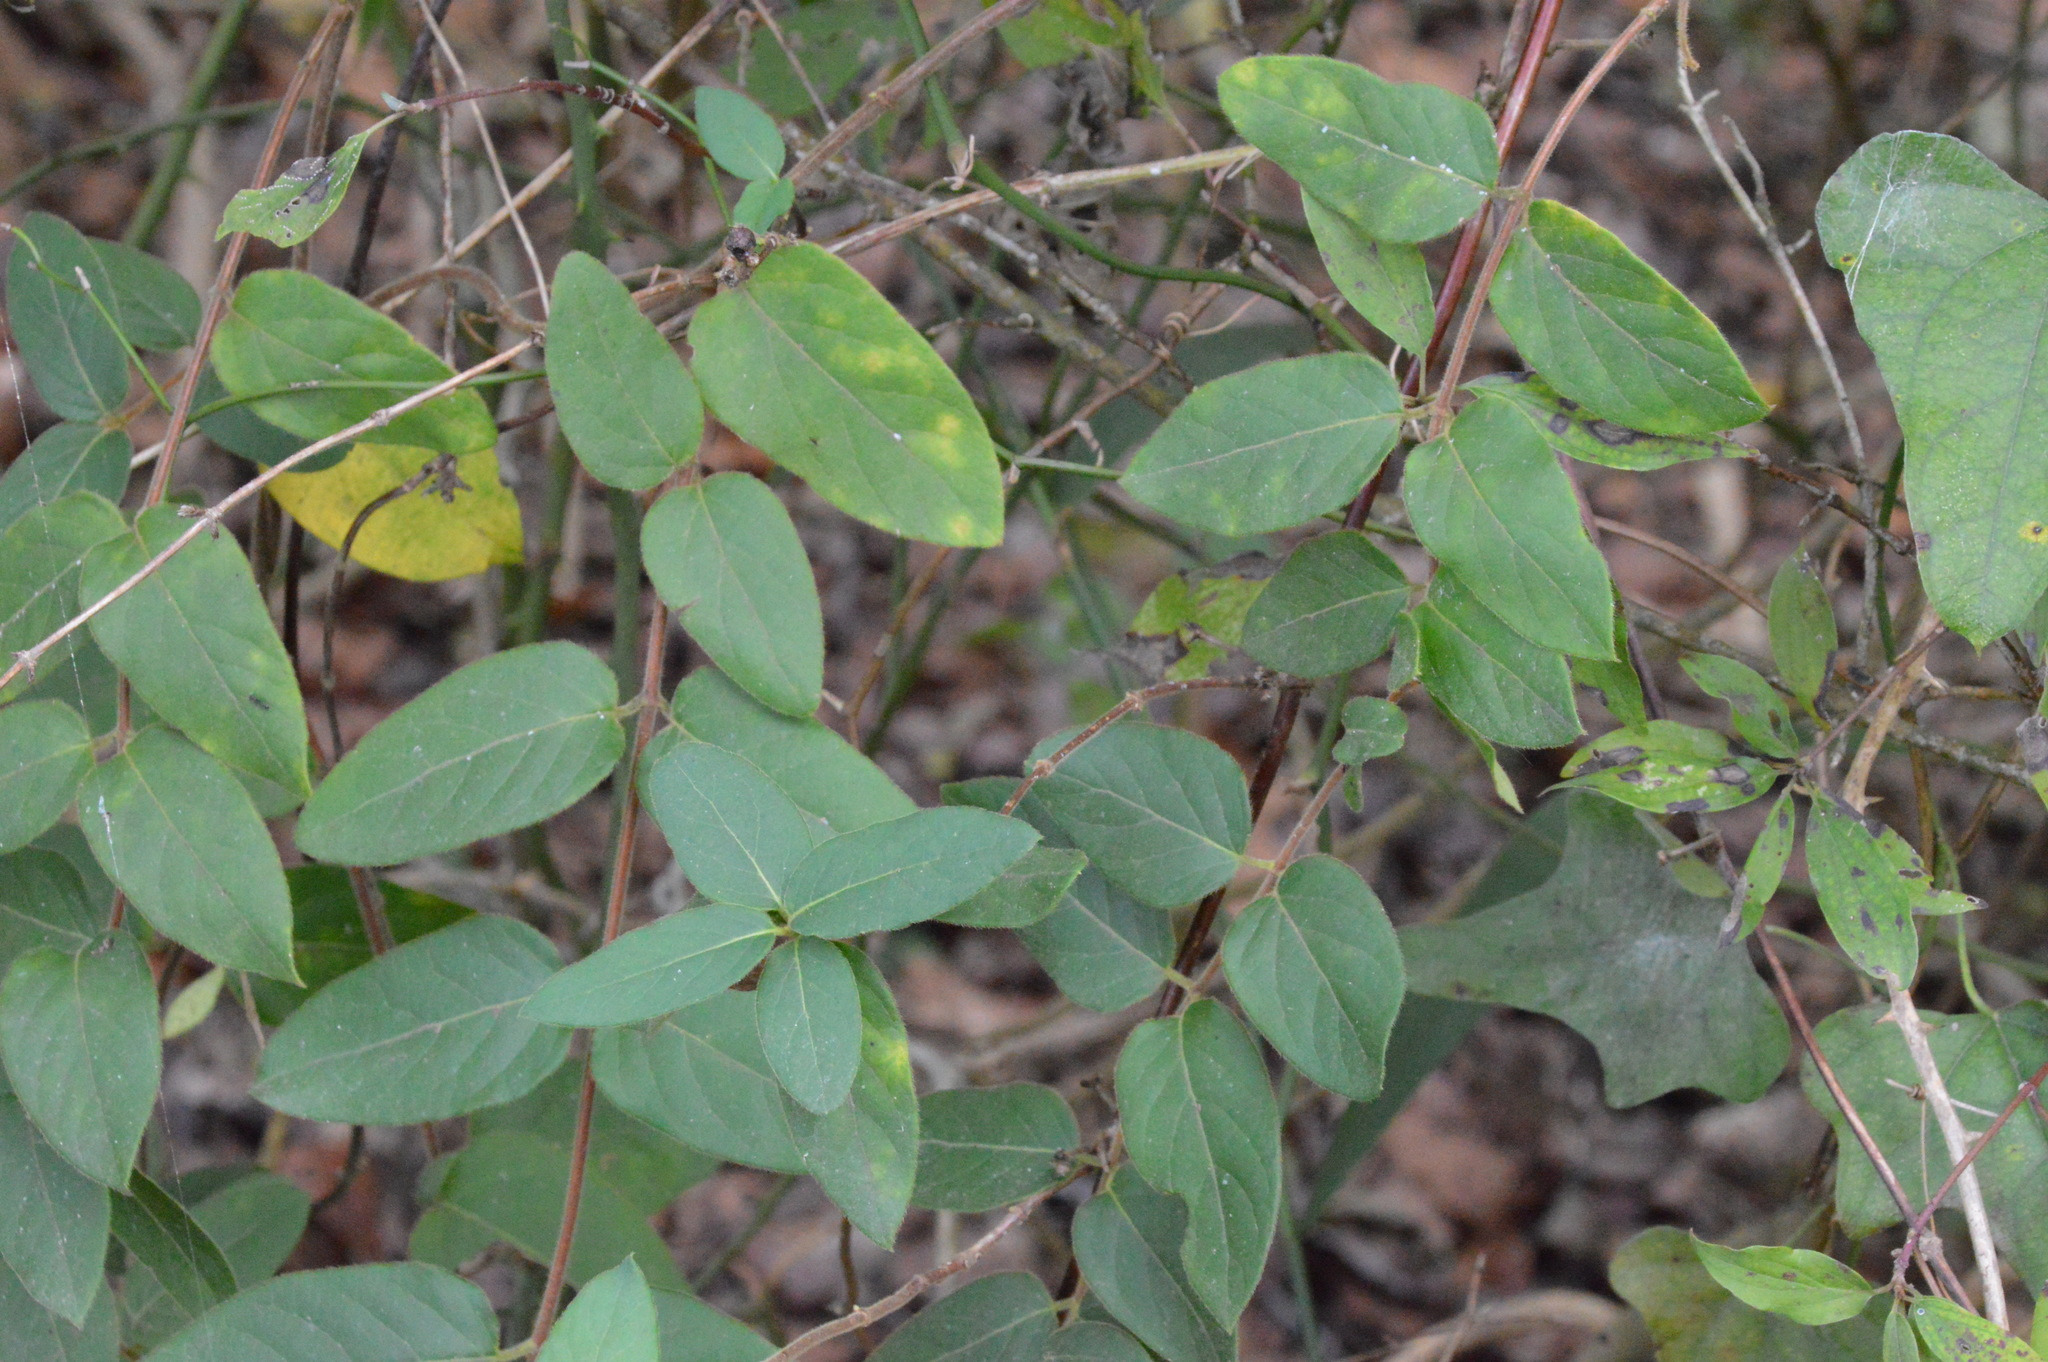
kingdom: Plantae
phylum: Tracheophyta
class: Magnoliopsida
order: Dipsacales
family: Caprifoliaceae
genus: Lonicera
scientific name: Lonicera japonica
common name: Japanese honeysuckle
